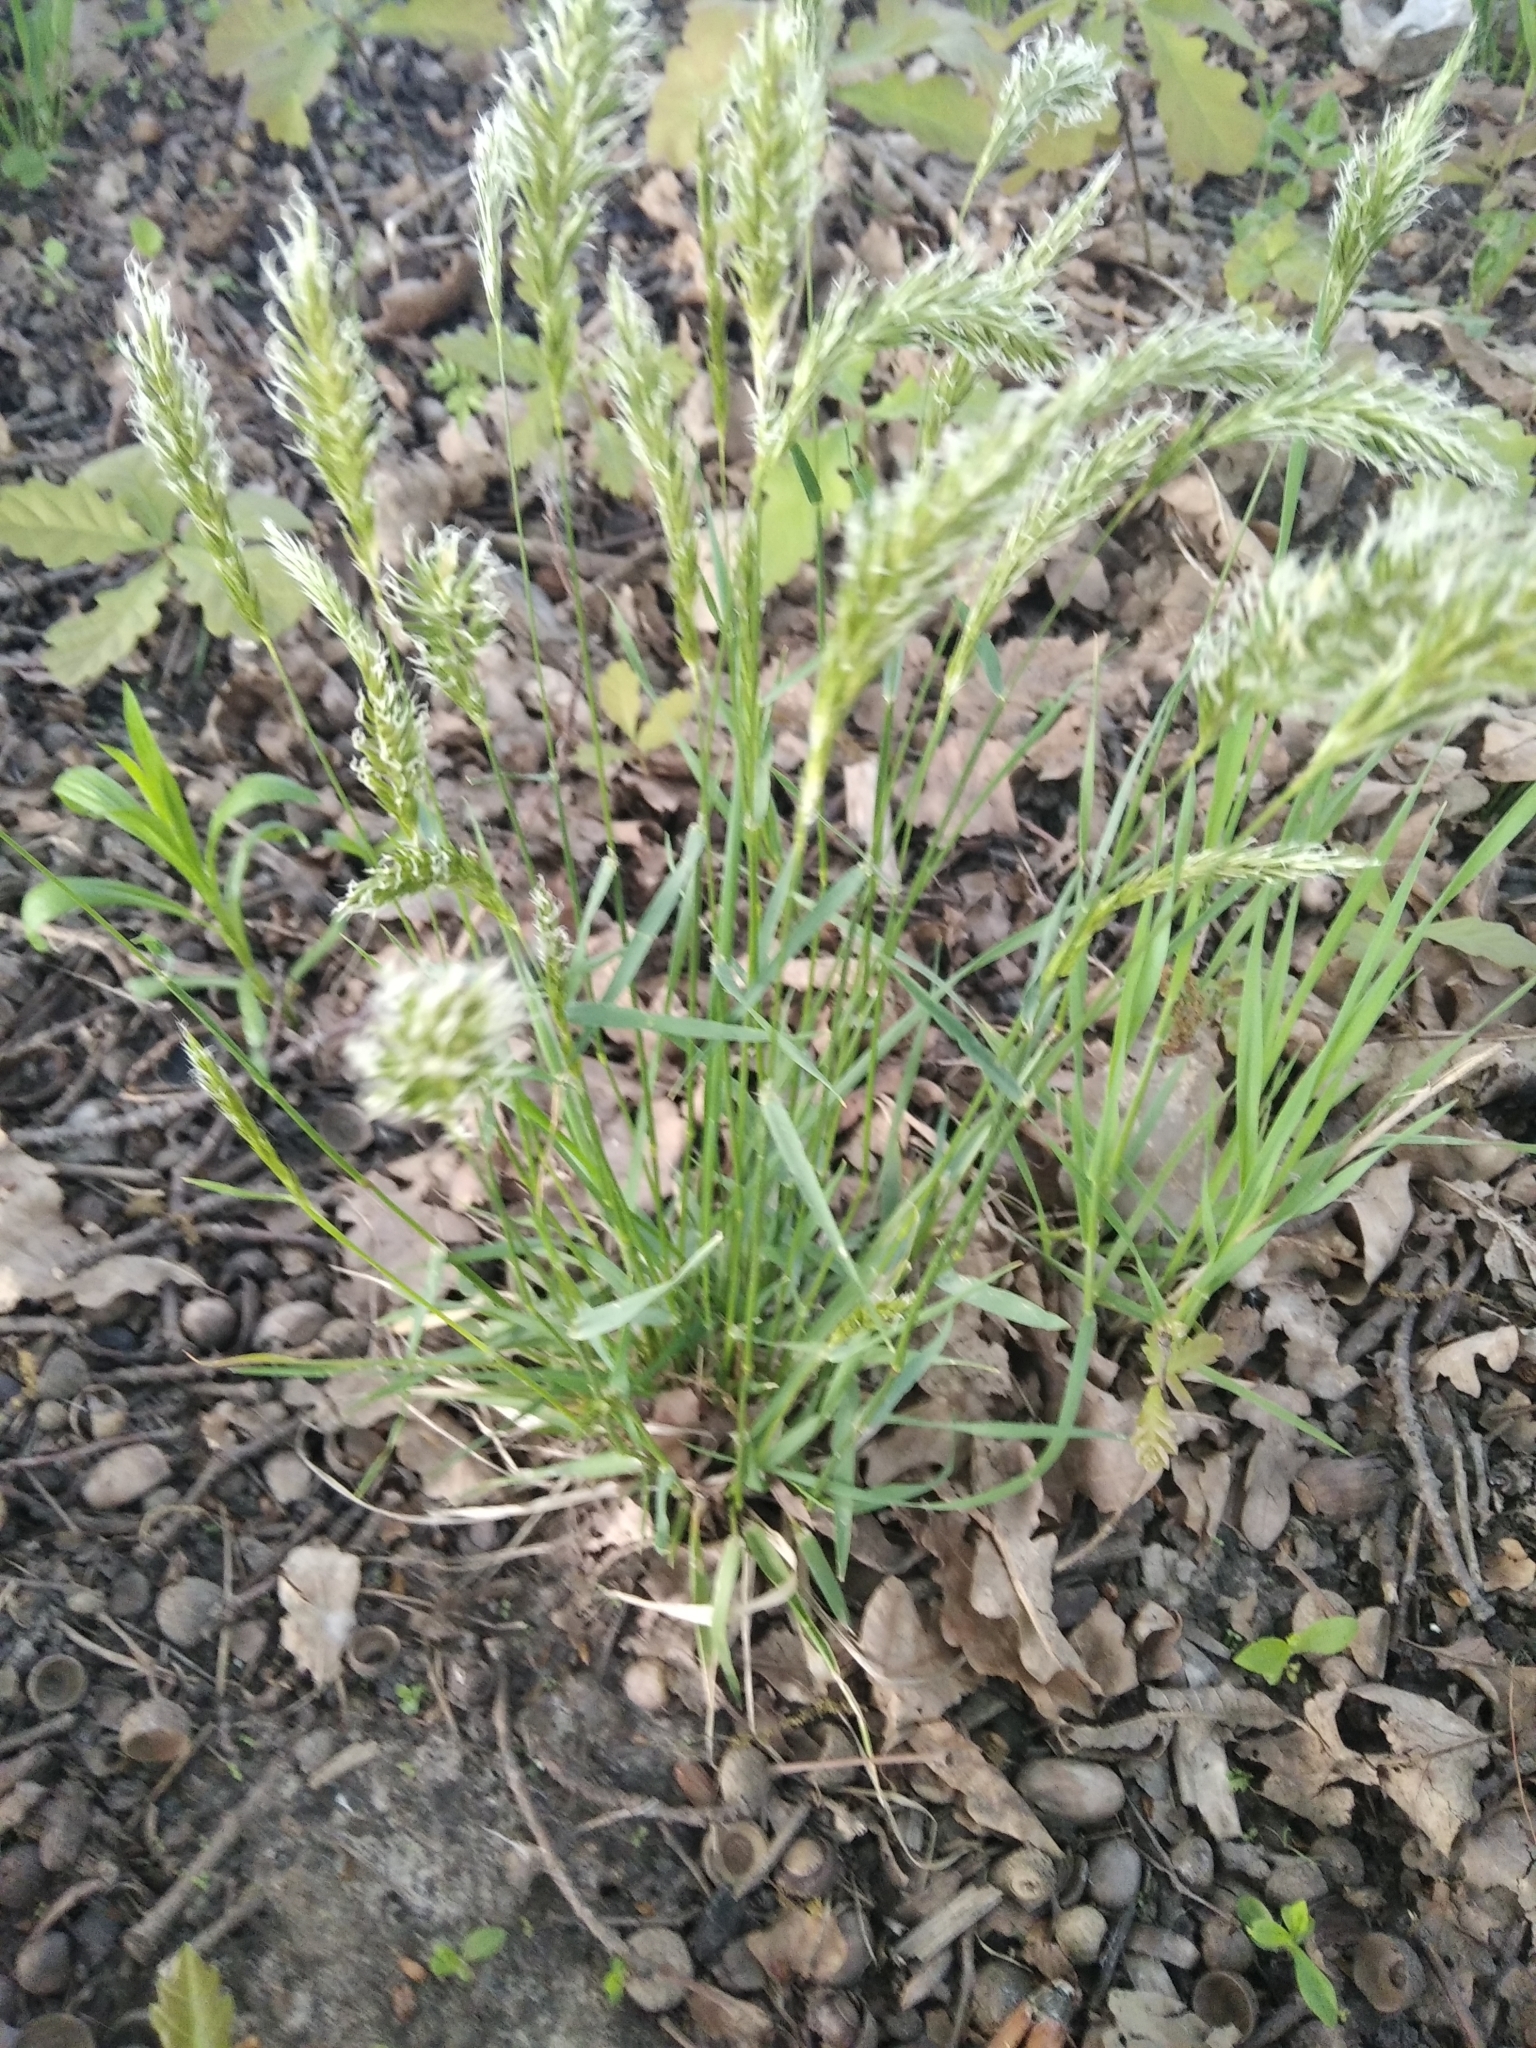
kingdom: Plantae
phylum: Tracheophyta
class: Liliopsida
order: Poales
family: Poaceae
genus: Anthoxanthum
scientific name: Anthoxanthum odoratum
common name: Sweet vernalgrass
